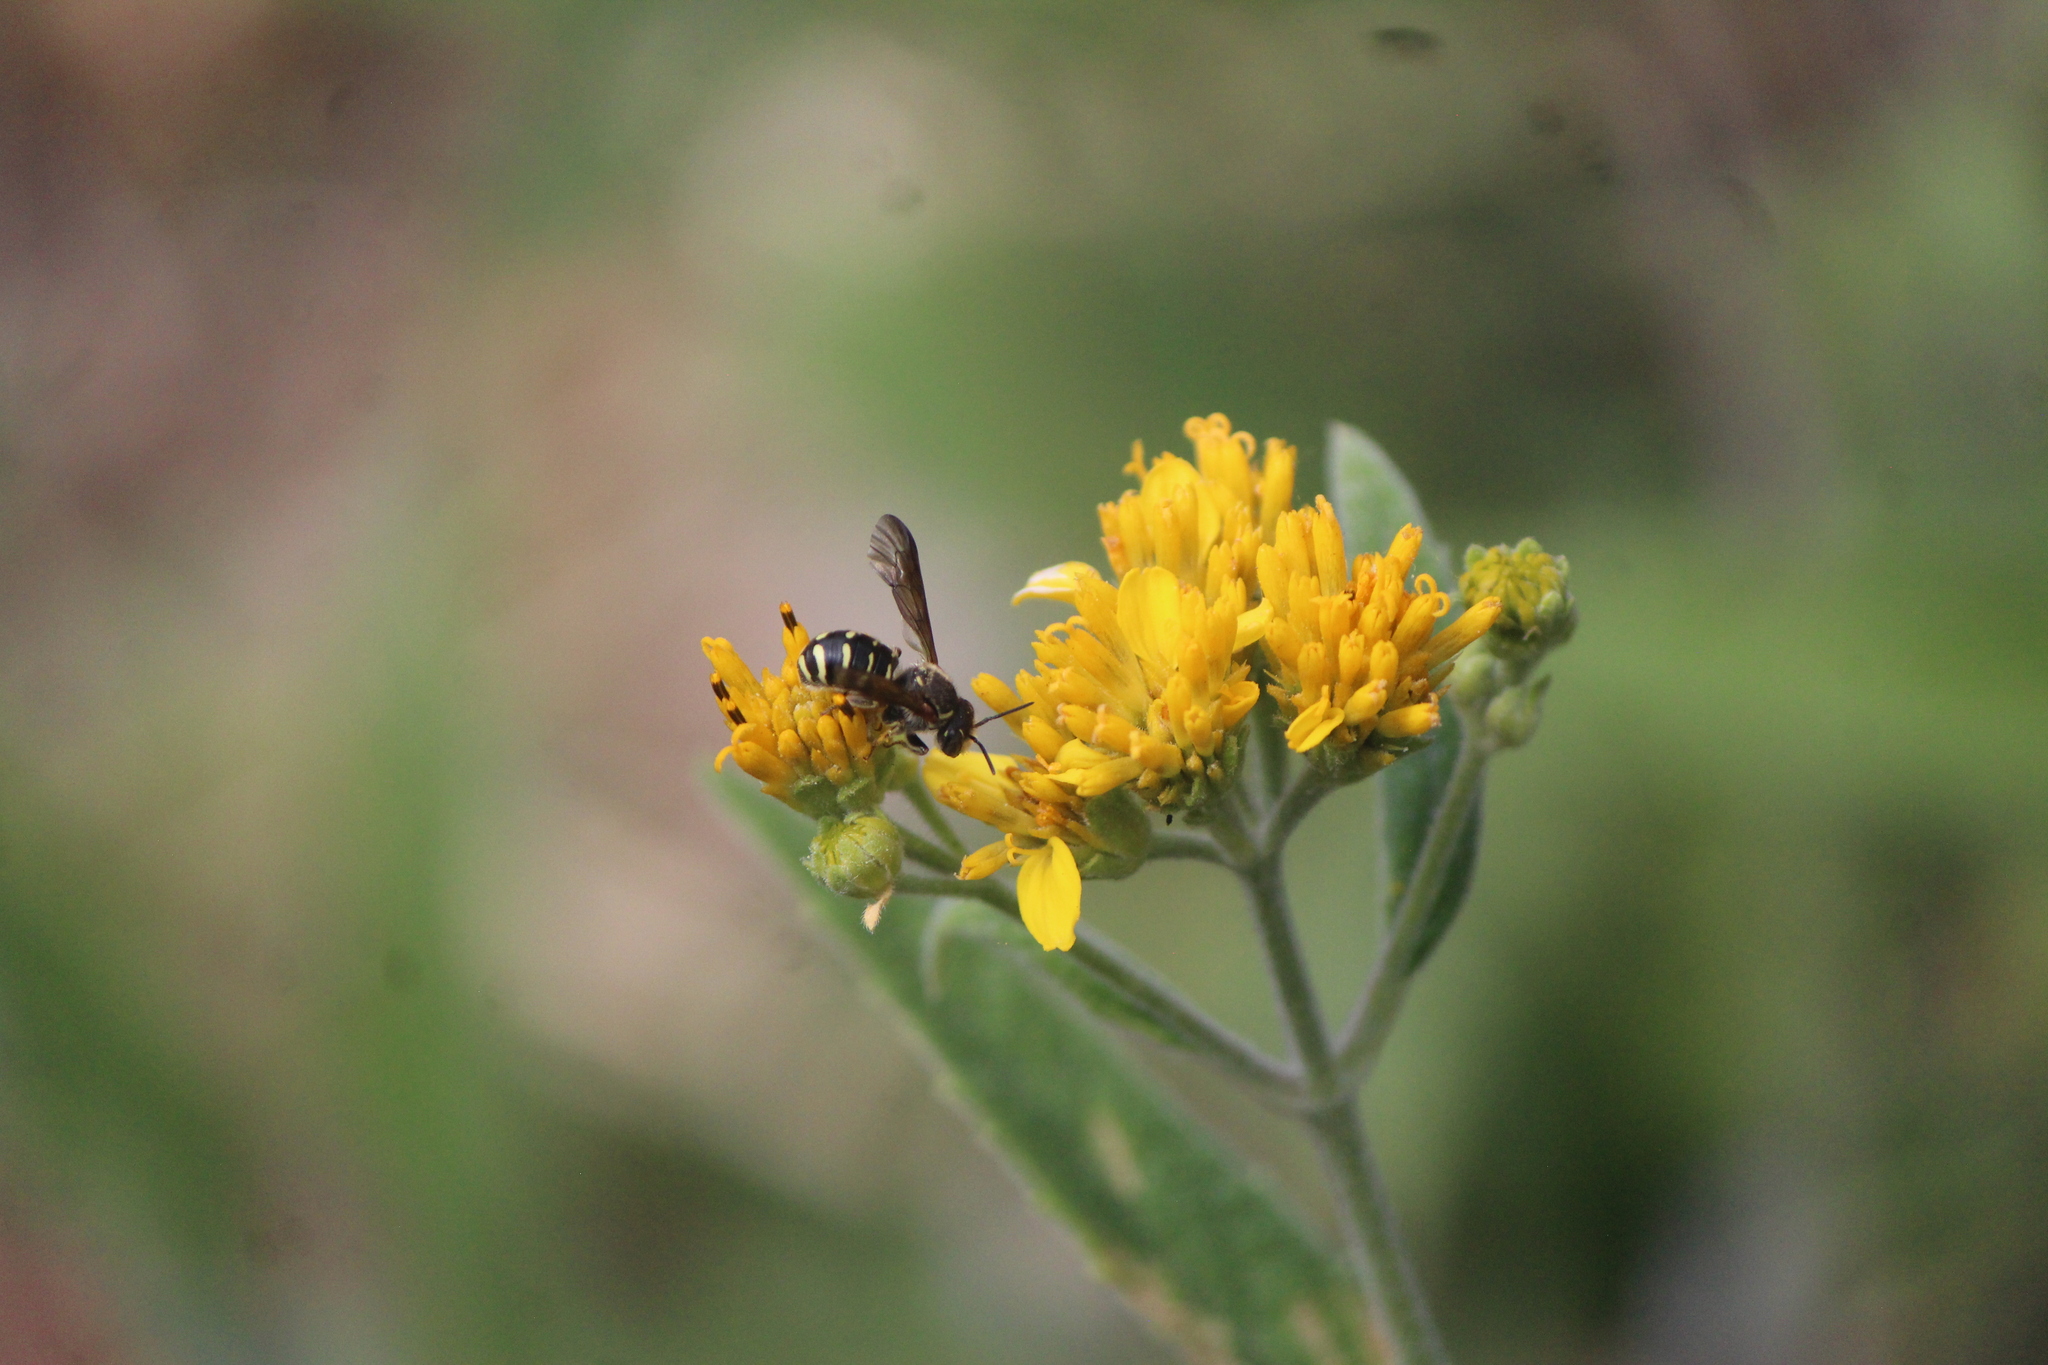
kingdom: Animalia
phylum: Arthropoda
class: Insecta
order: Hymenoptera
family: Megachilidae
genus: Paranthidium
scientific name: Paranthidium gabbii
